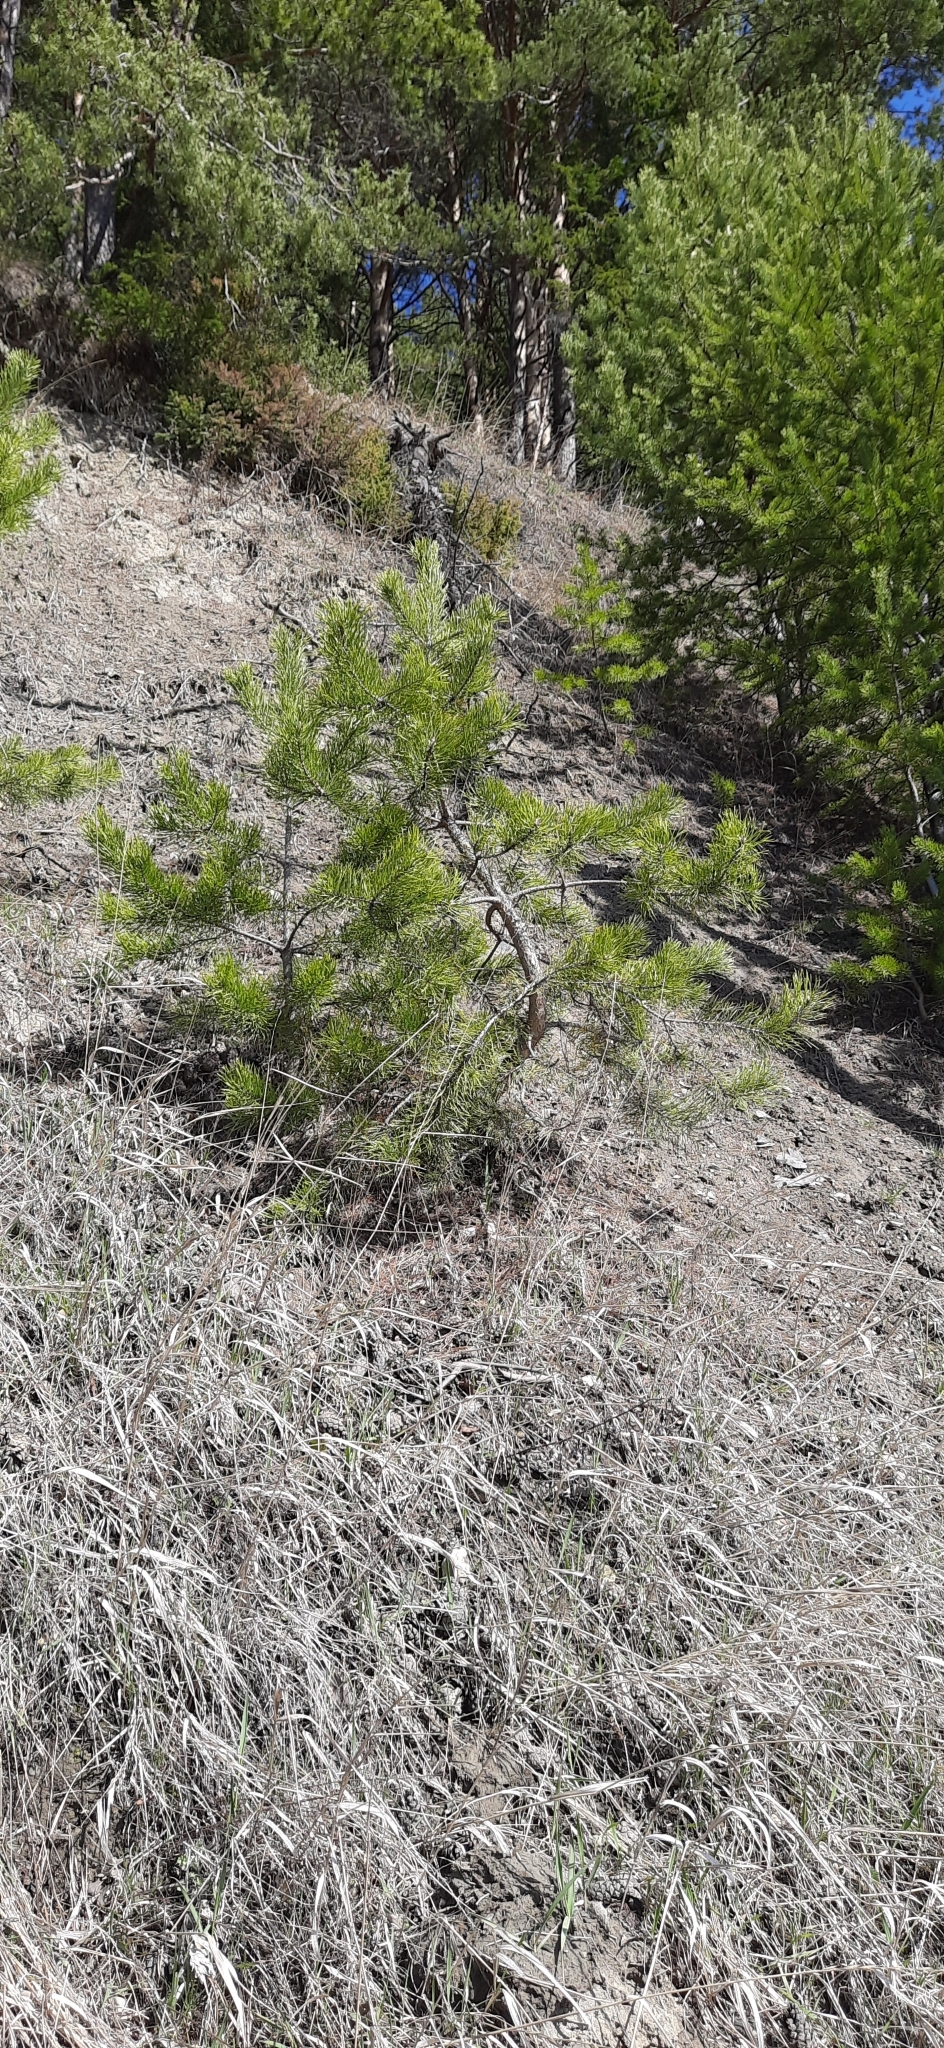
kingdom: Plantae
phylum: Tracheophyta
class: Pinopsida
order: Pinales
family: Pinaceae
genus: Pinus
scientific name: Pinus sylvestris
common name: Scots pine
